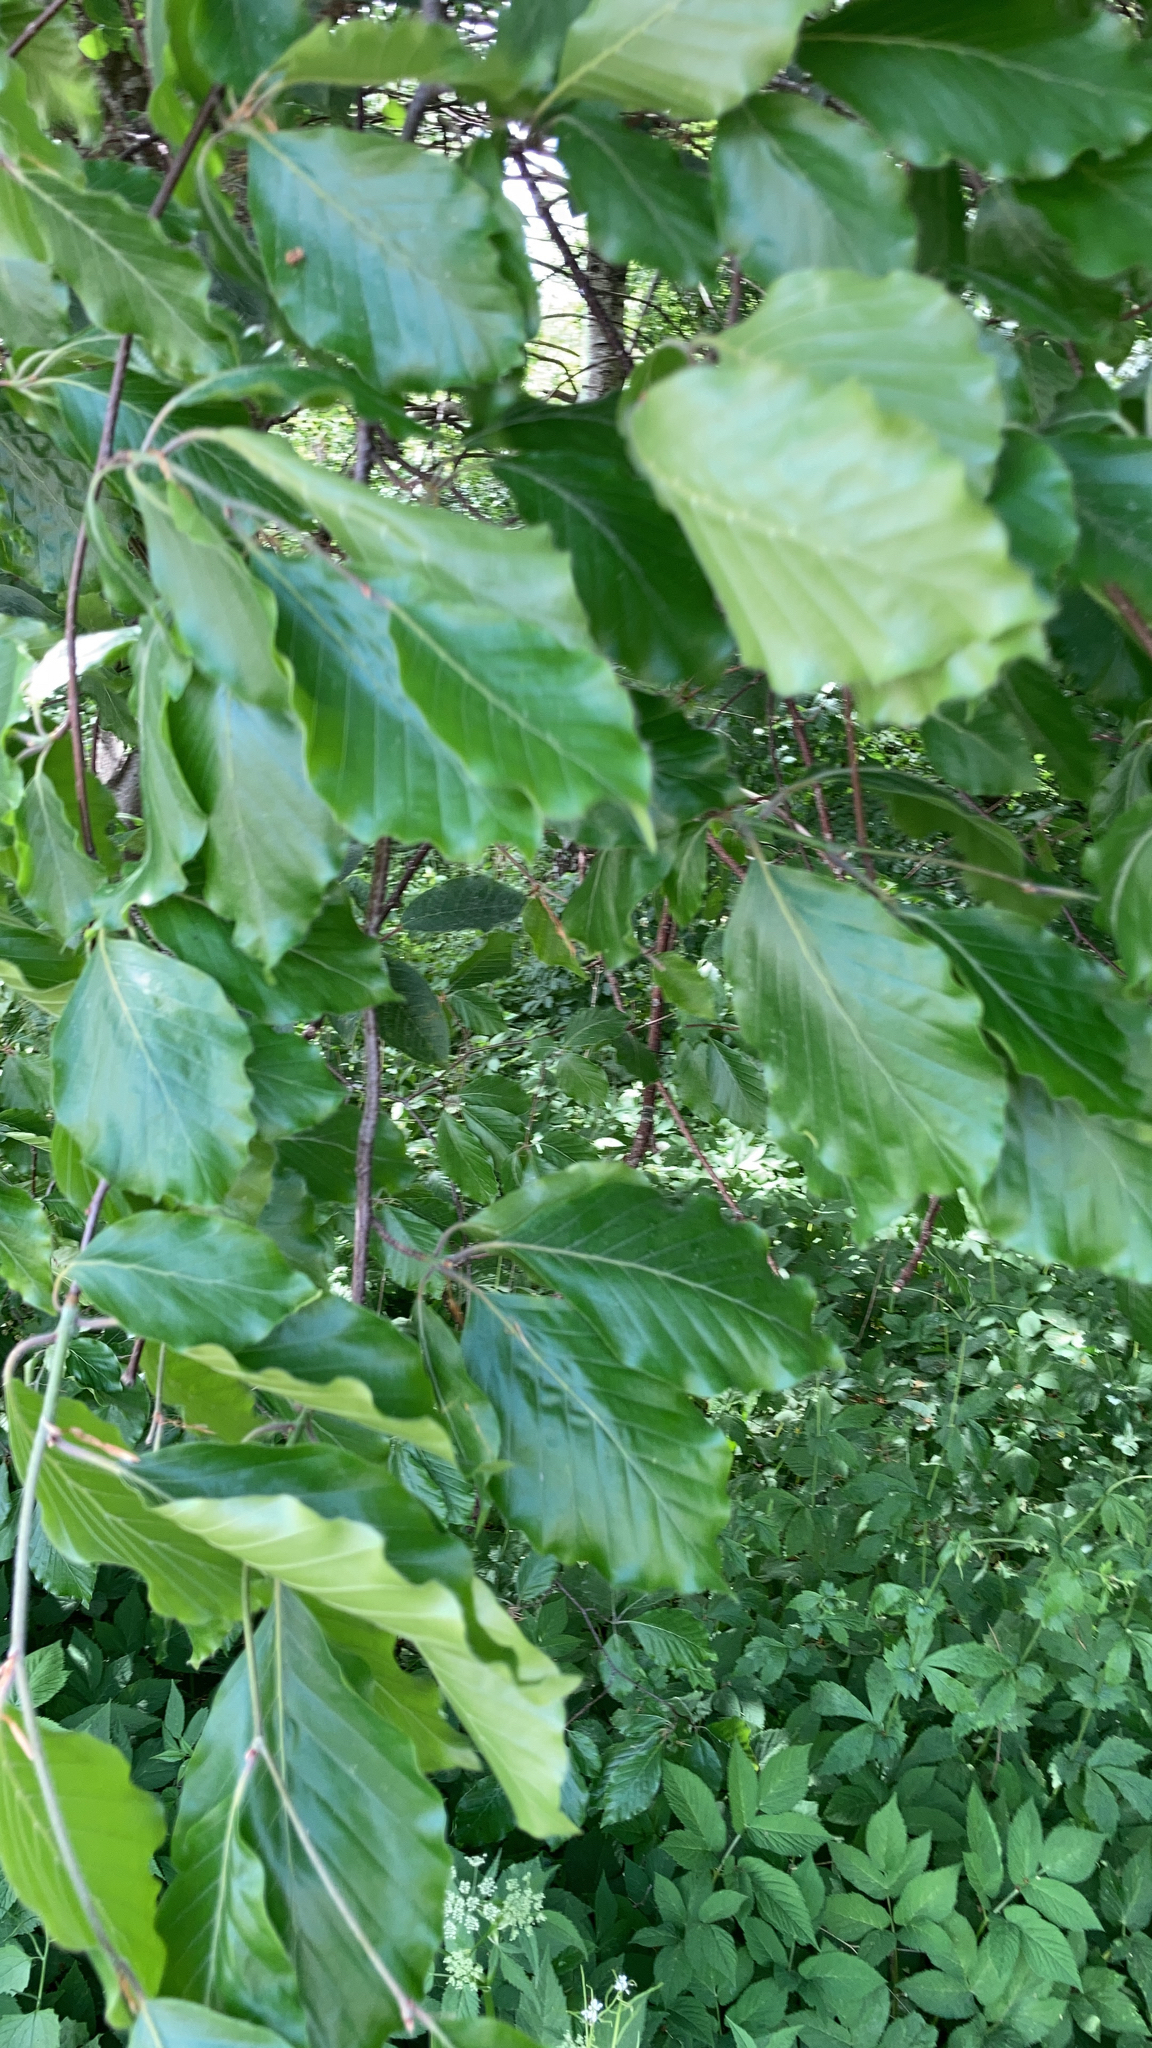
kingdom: Plantae
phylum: Tracheophyta
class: Magnoliopsida
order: Fagales
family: Fagaceae
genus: Fagus
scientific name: Fagus sylvatica
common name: Beech
